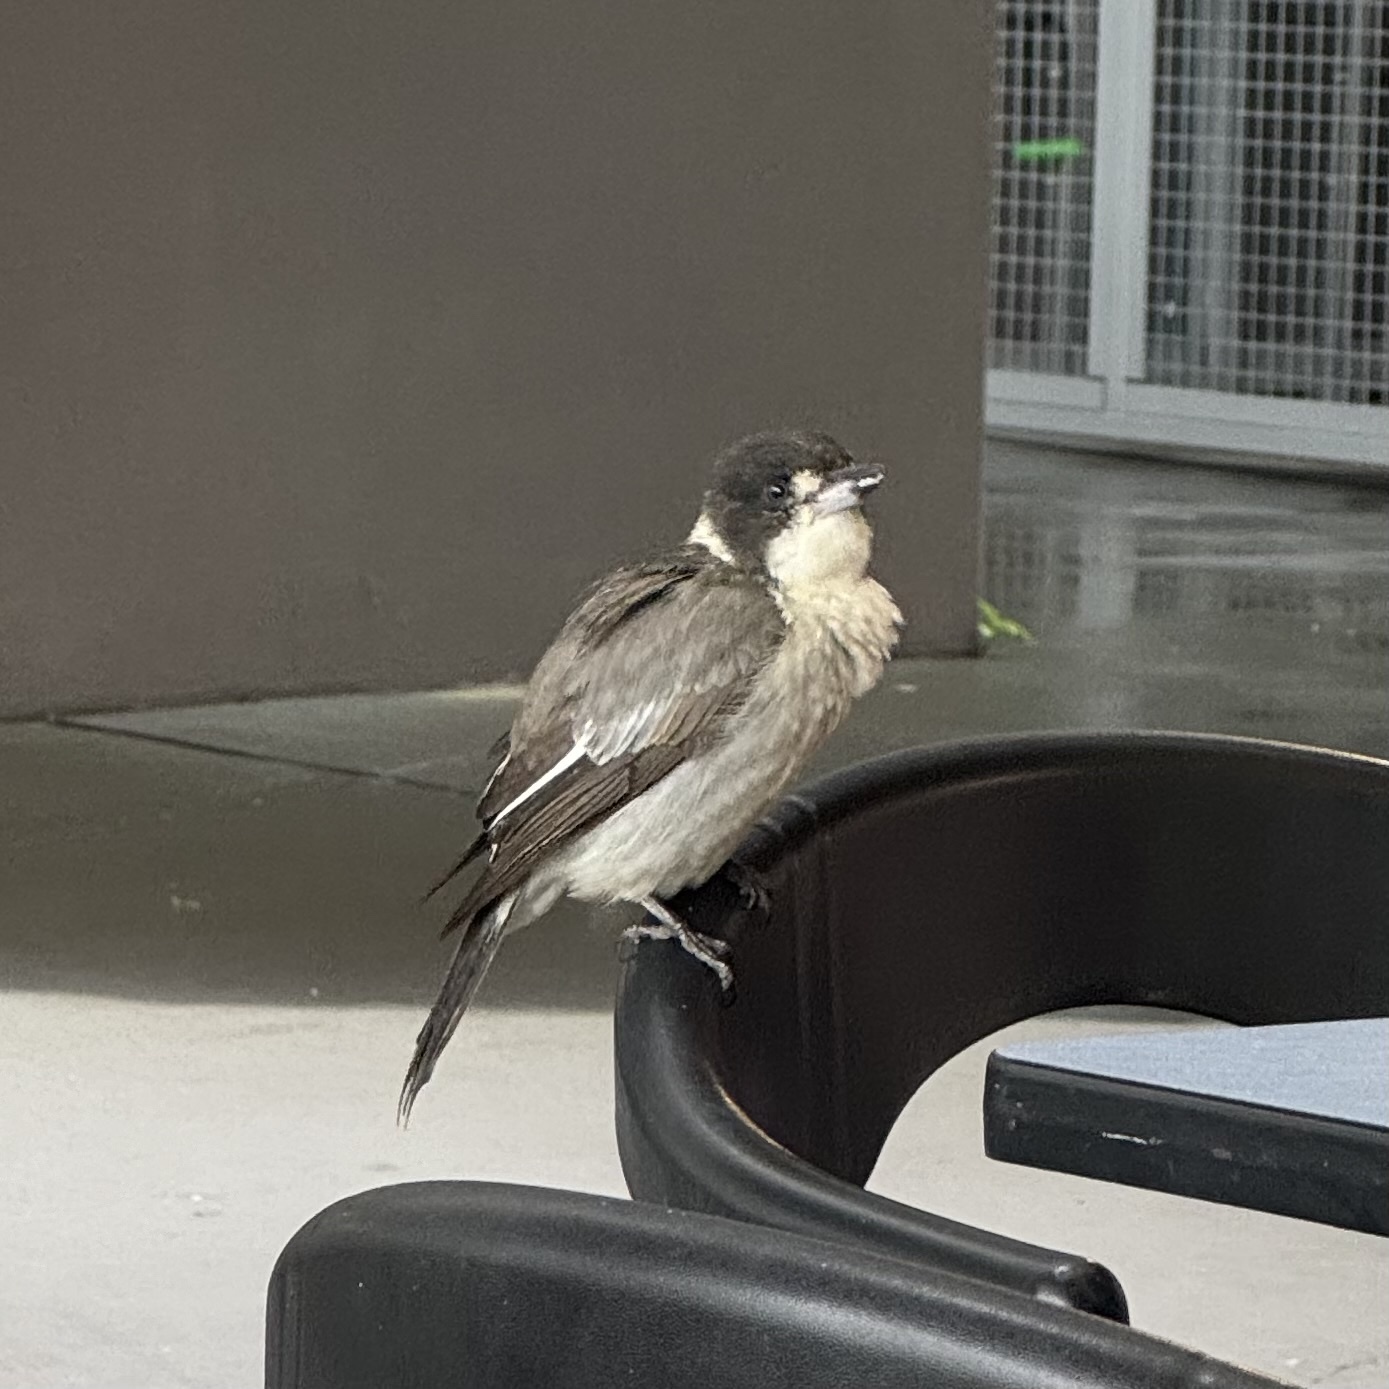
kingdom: Animalia
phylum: Chordata
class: Aves
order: Passeriformes
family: Cracticidae
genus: Cracticus
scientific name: Cracticus torquatus
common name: Grey butcherbird
